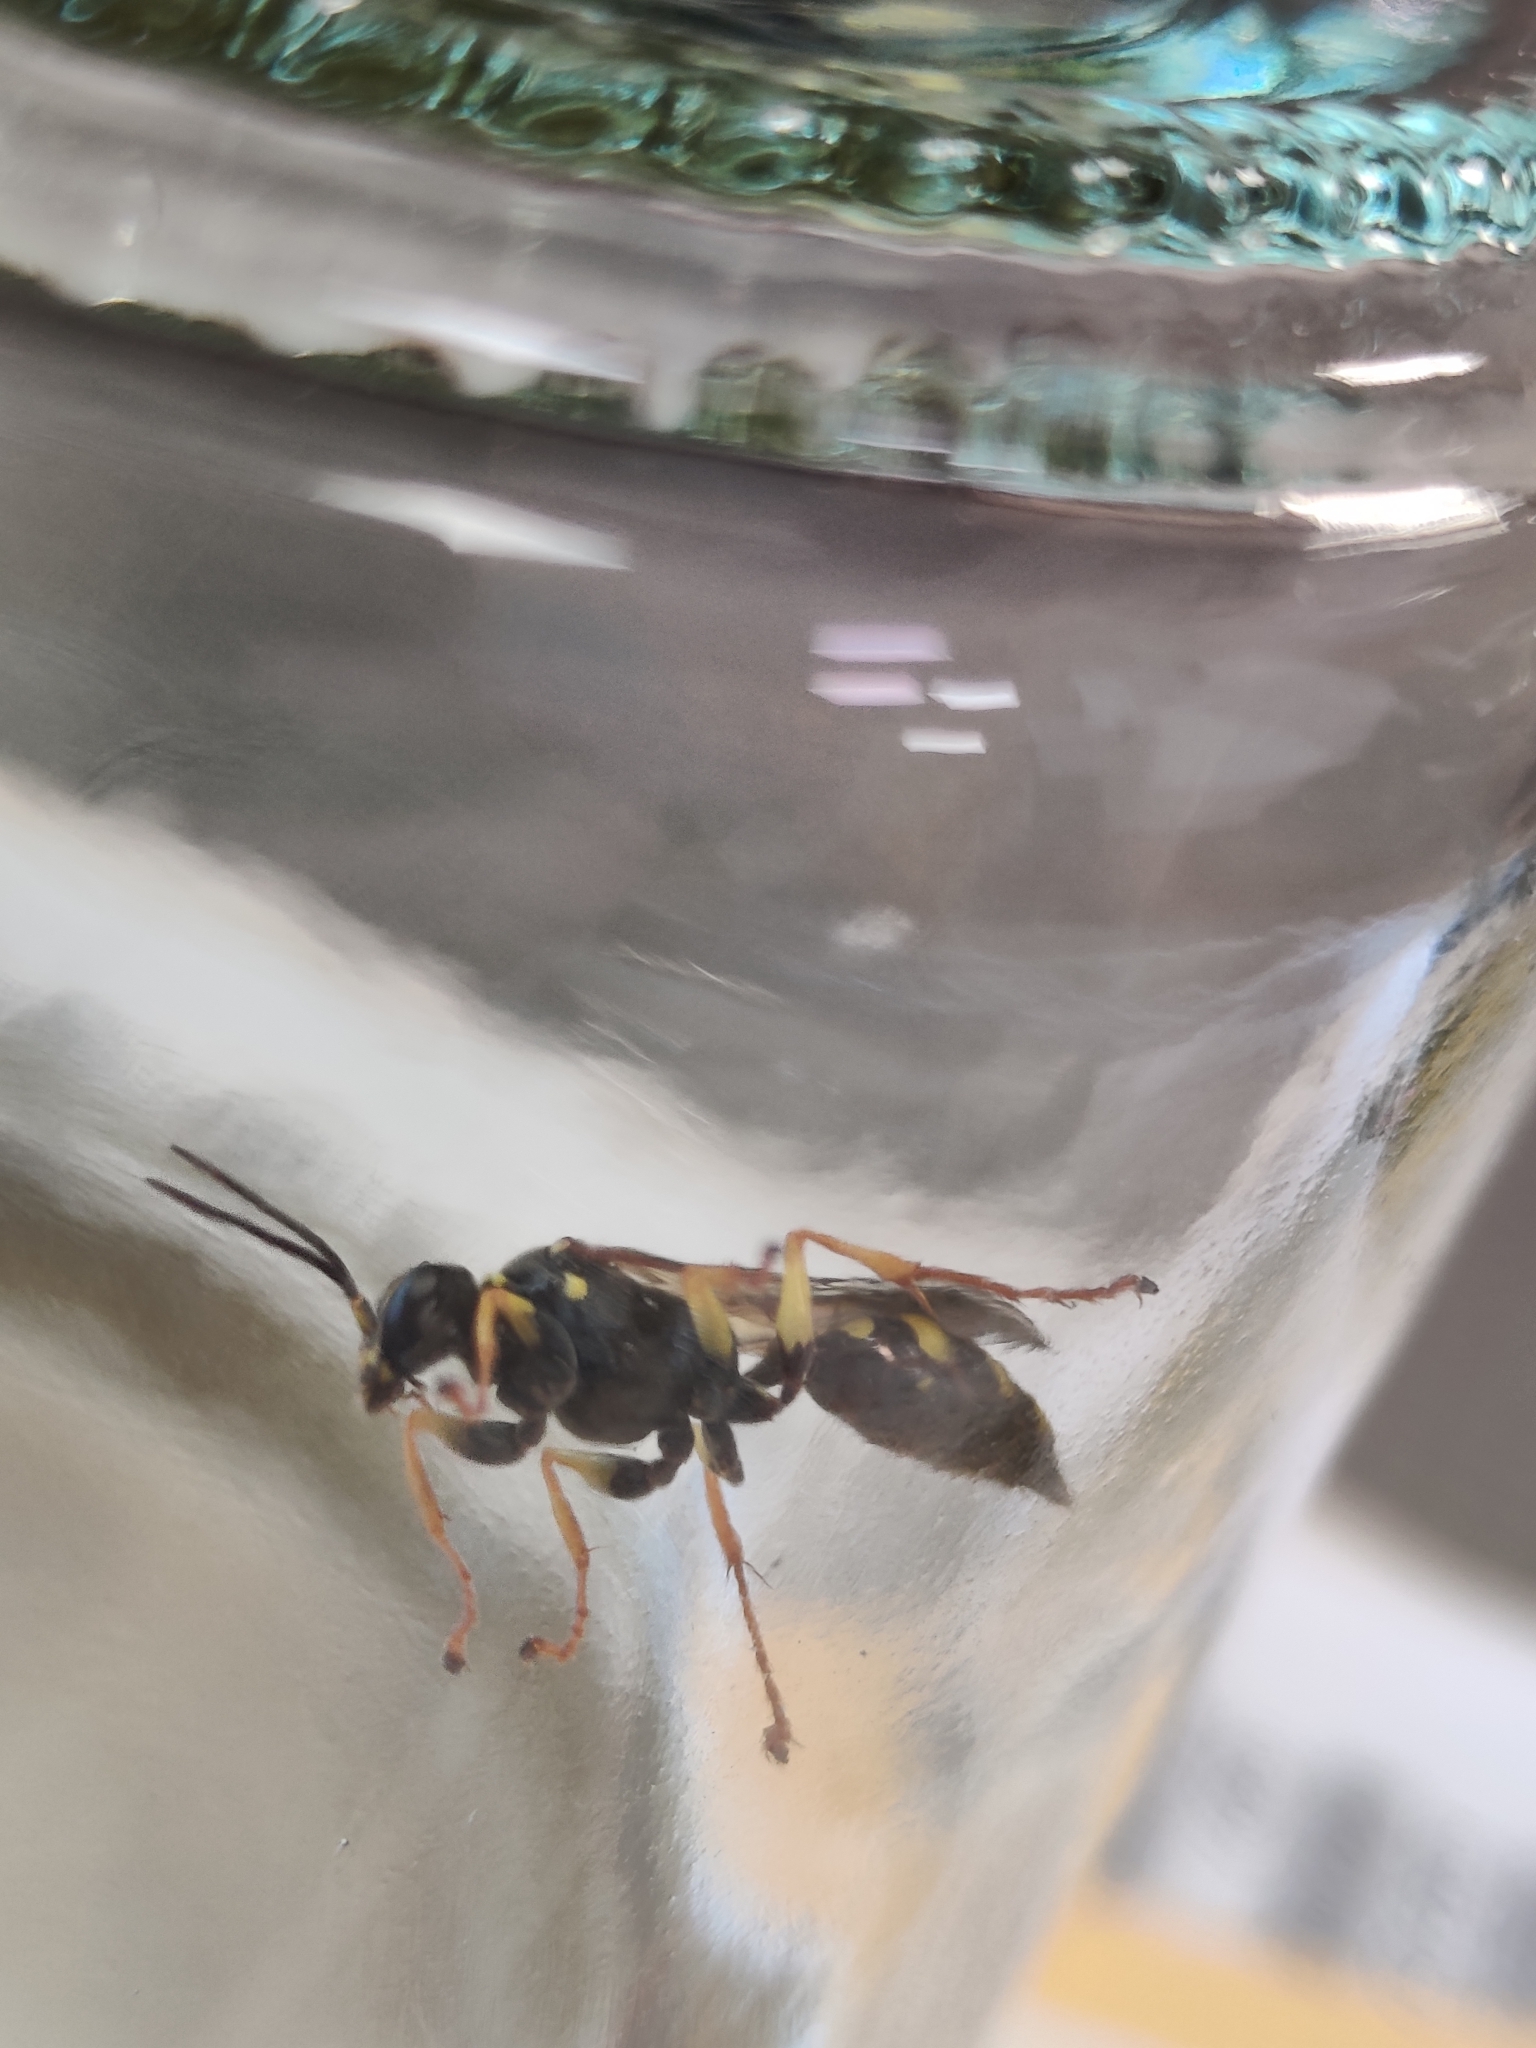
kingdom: Animalia
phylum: Arthropoda
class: Insecta
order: Hymenoptera
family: Crabronidae
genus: Mellinus
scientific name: Mellinus arvensis
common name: Field digger wasp
